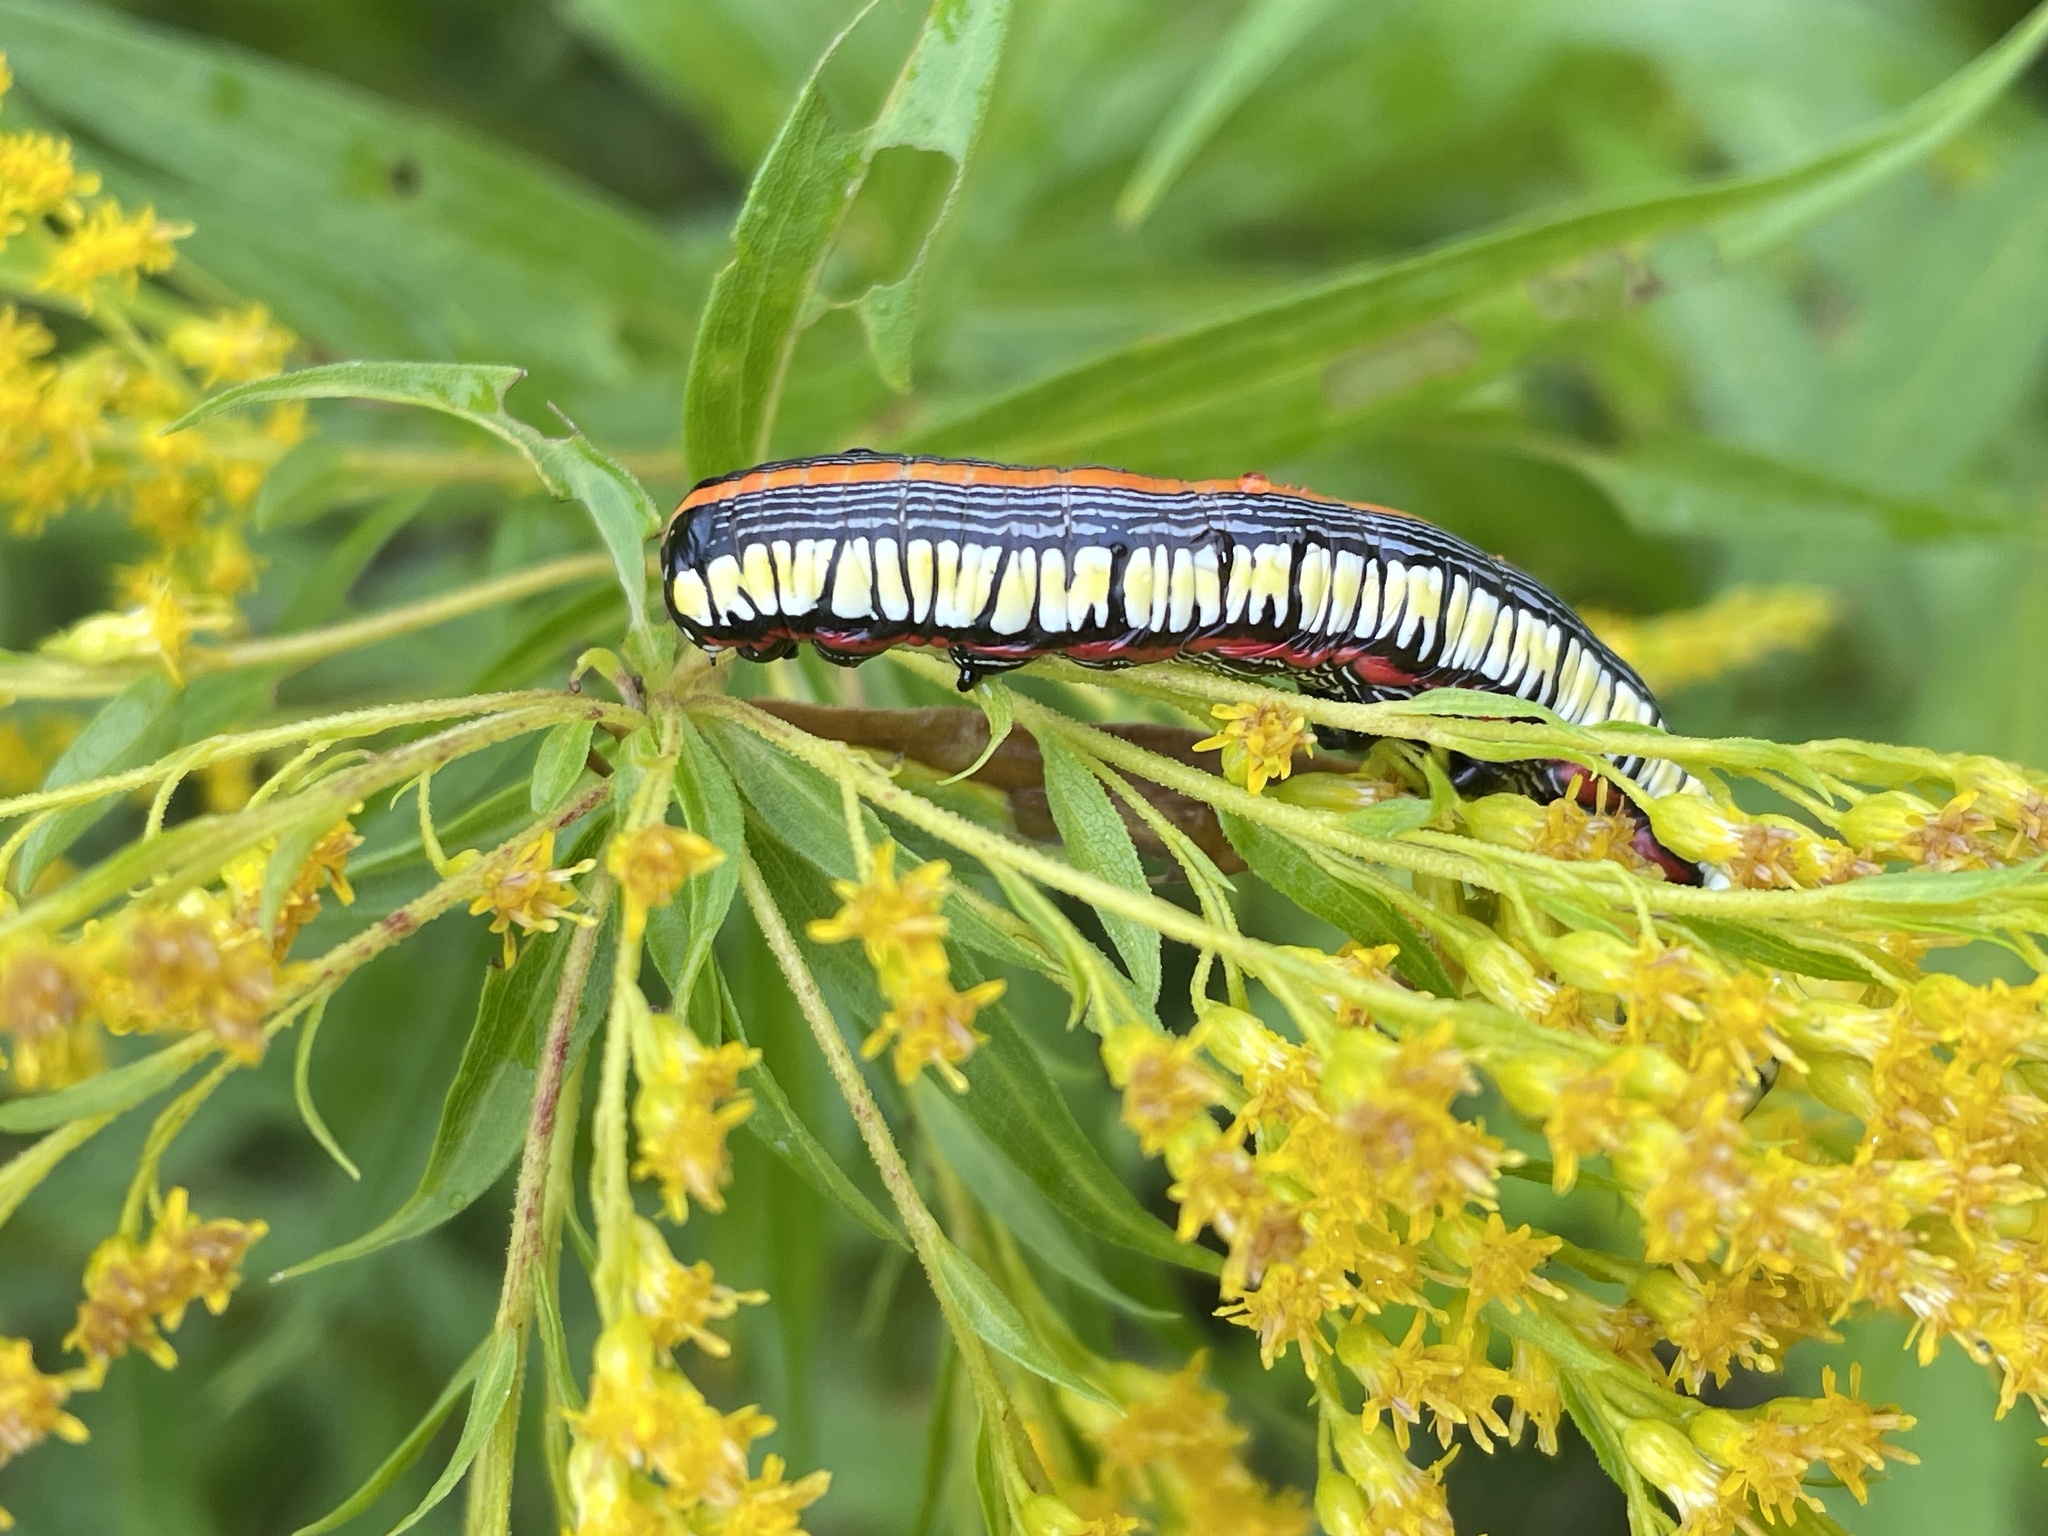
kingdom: Animalia
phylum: Arthropoda
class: Insecta
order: Lepidoptera
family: Noctuidae
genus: Cucullia
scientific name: Cucullia convexipennis
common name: Brown-hooded owlet
